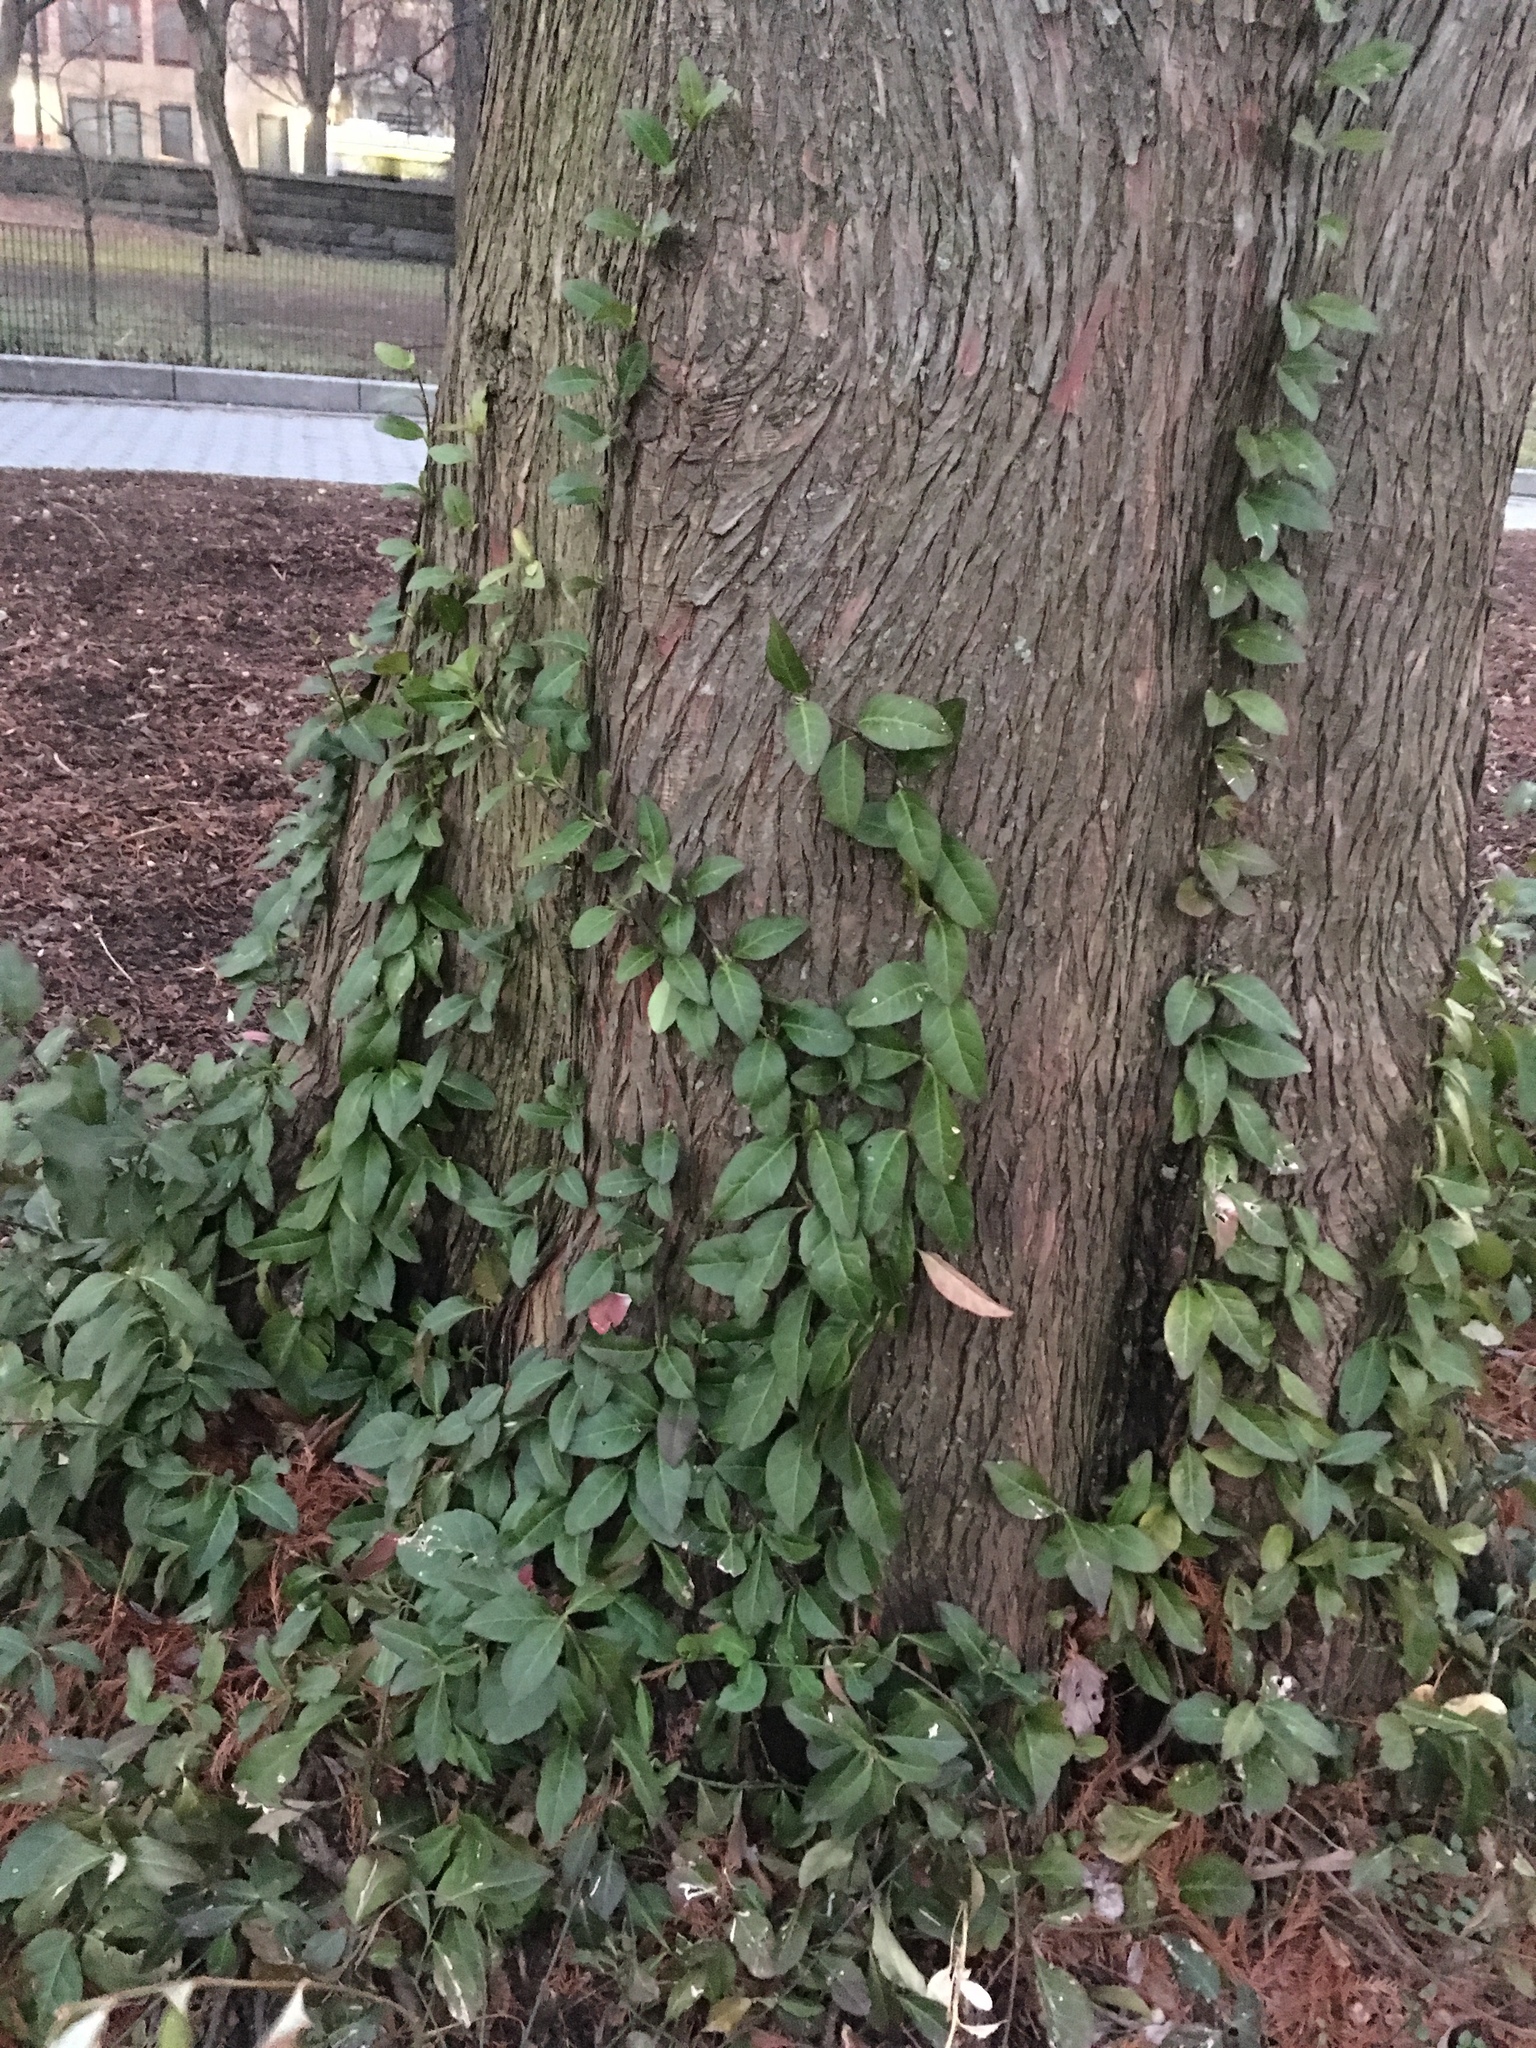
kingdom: Plantae
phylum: Tracheophyta
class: Magnoliopsida
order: Celastrales
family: Celastraceae
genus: Euonymus
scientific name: Euonymus fortunei
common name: Climbing euonymus
